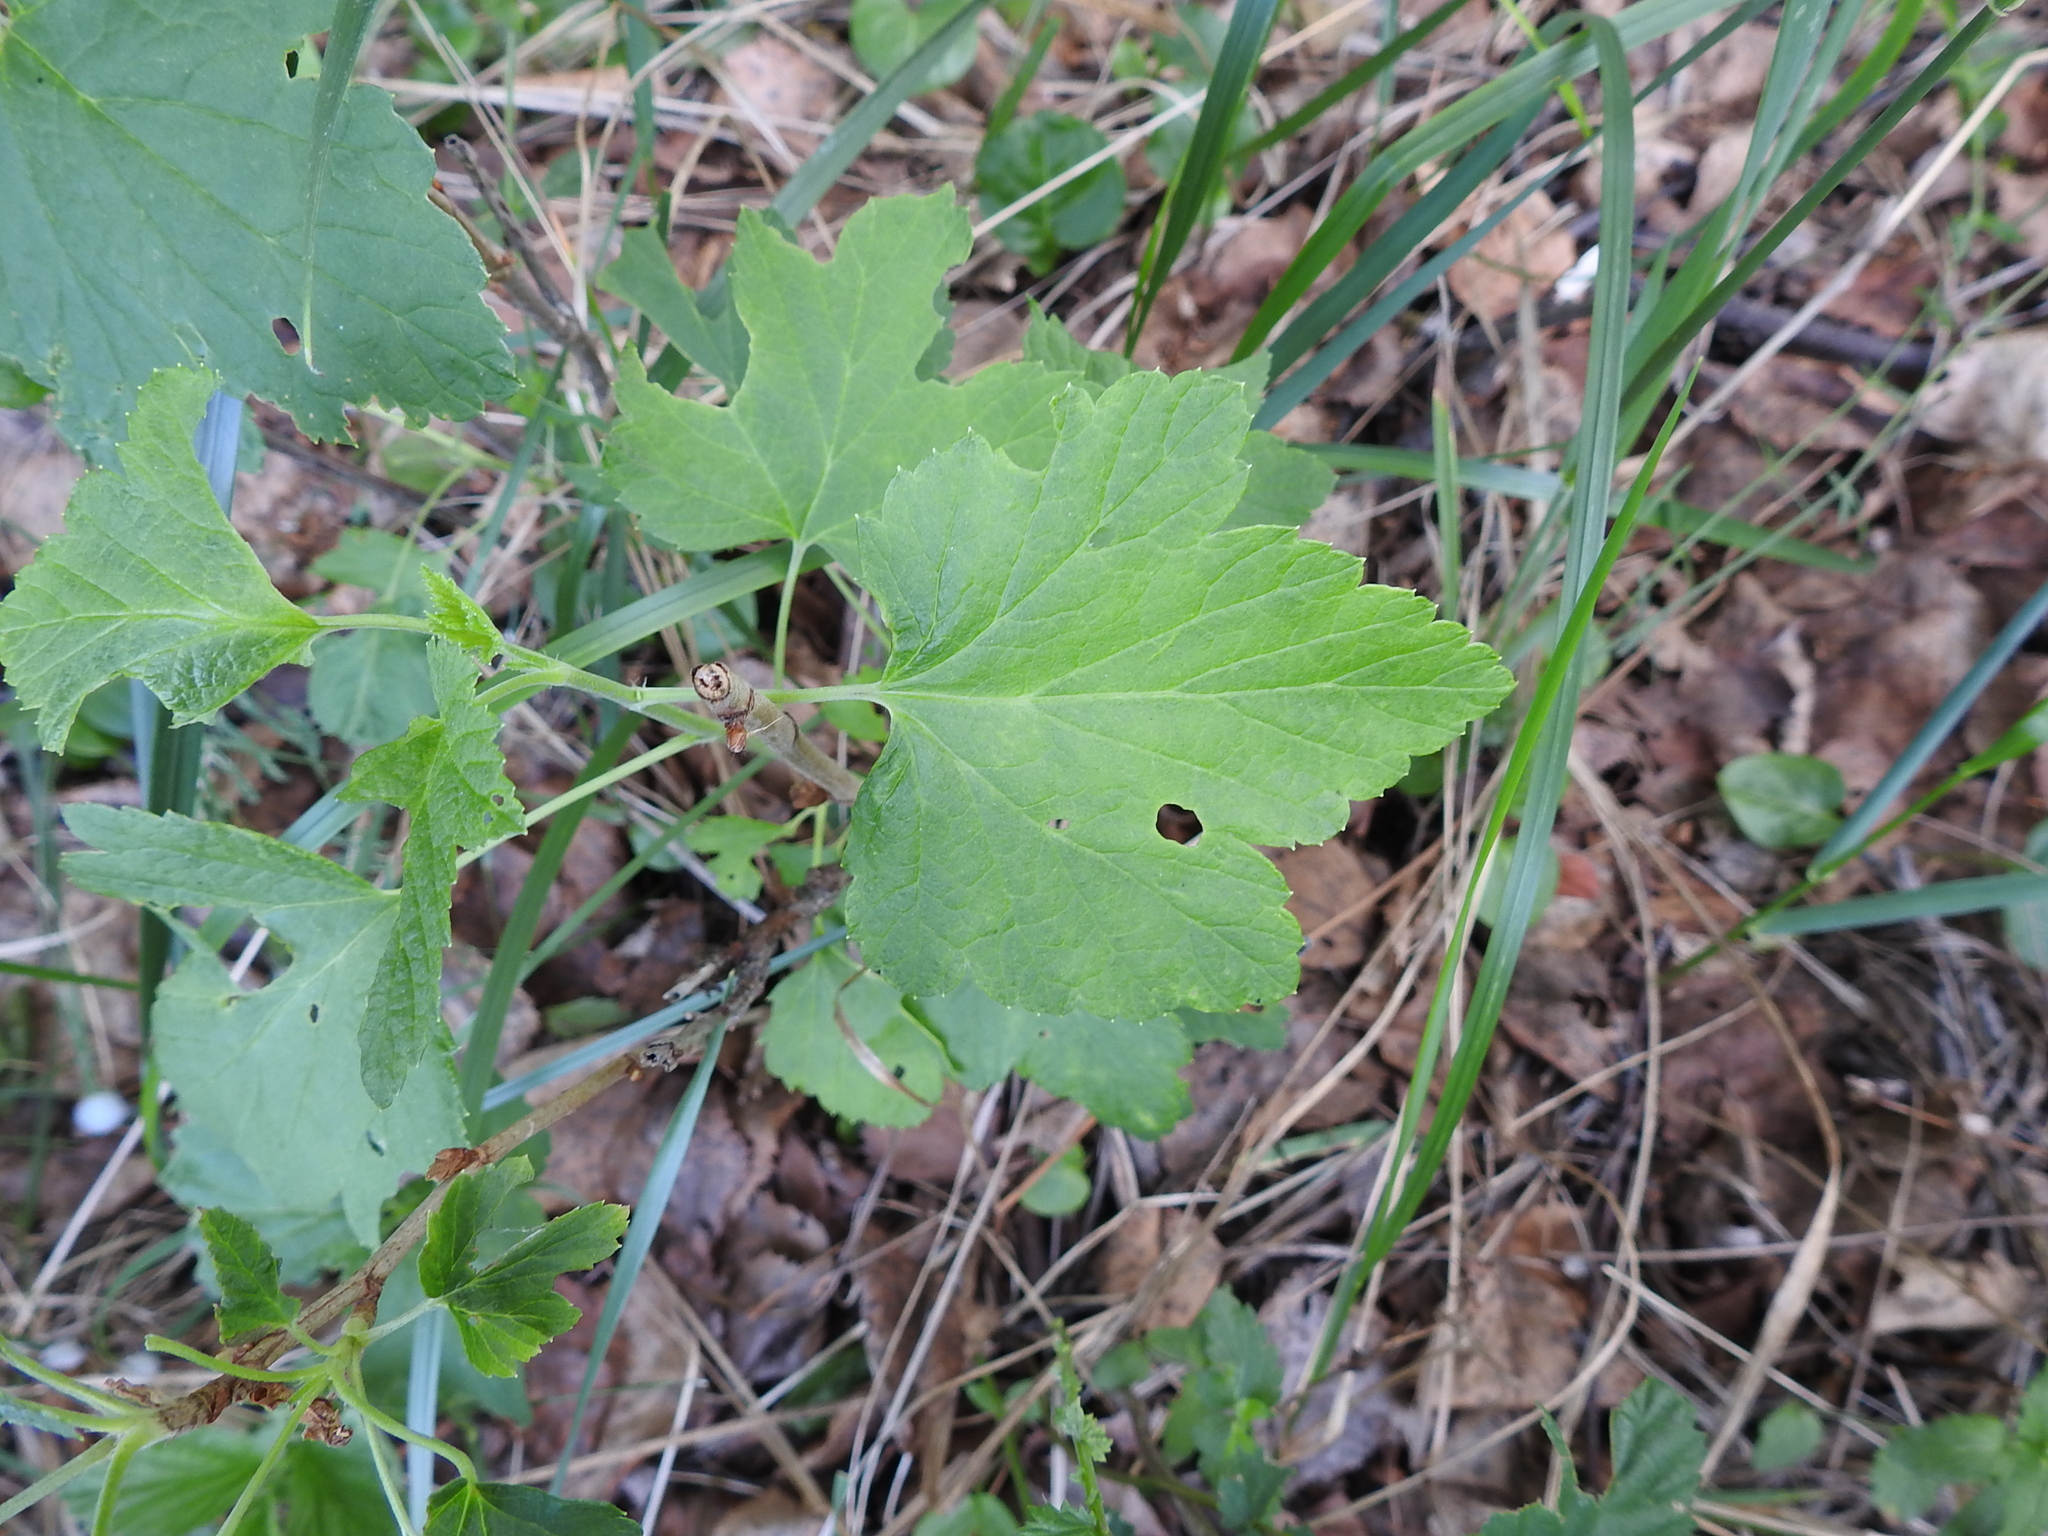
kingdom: Plantae
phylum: Tracheophyta
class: Magnoliopsida
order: Saxifragales
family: Grossulariaceae
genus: Ribes
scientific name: Ribes nigrum
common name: Black currant
